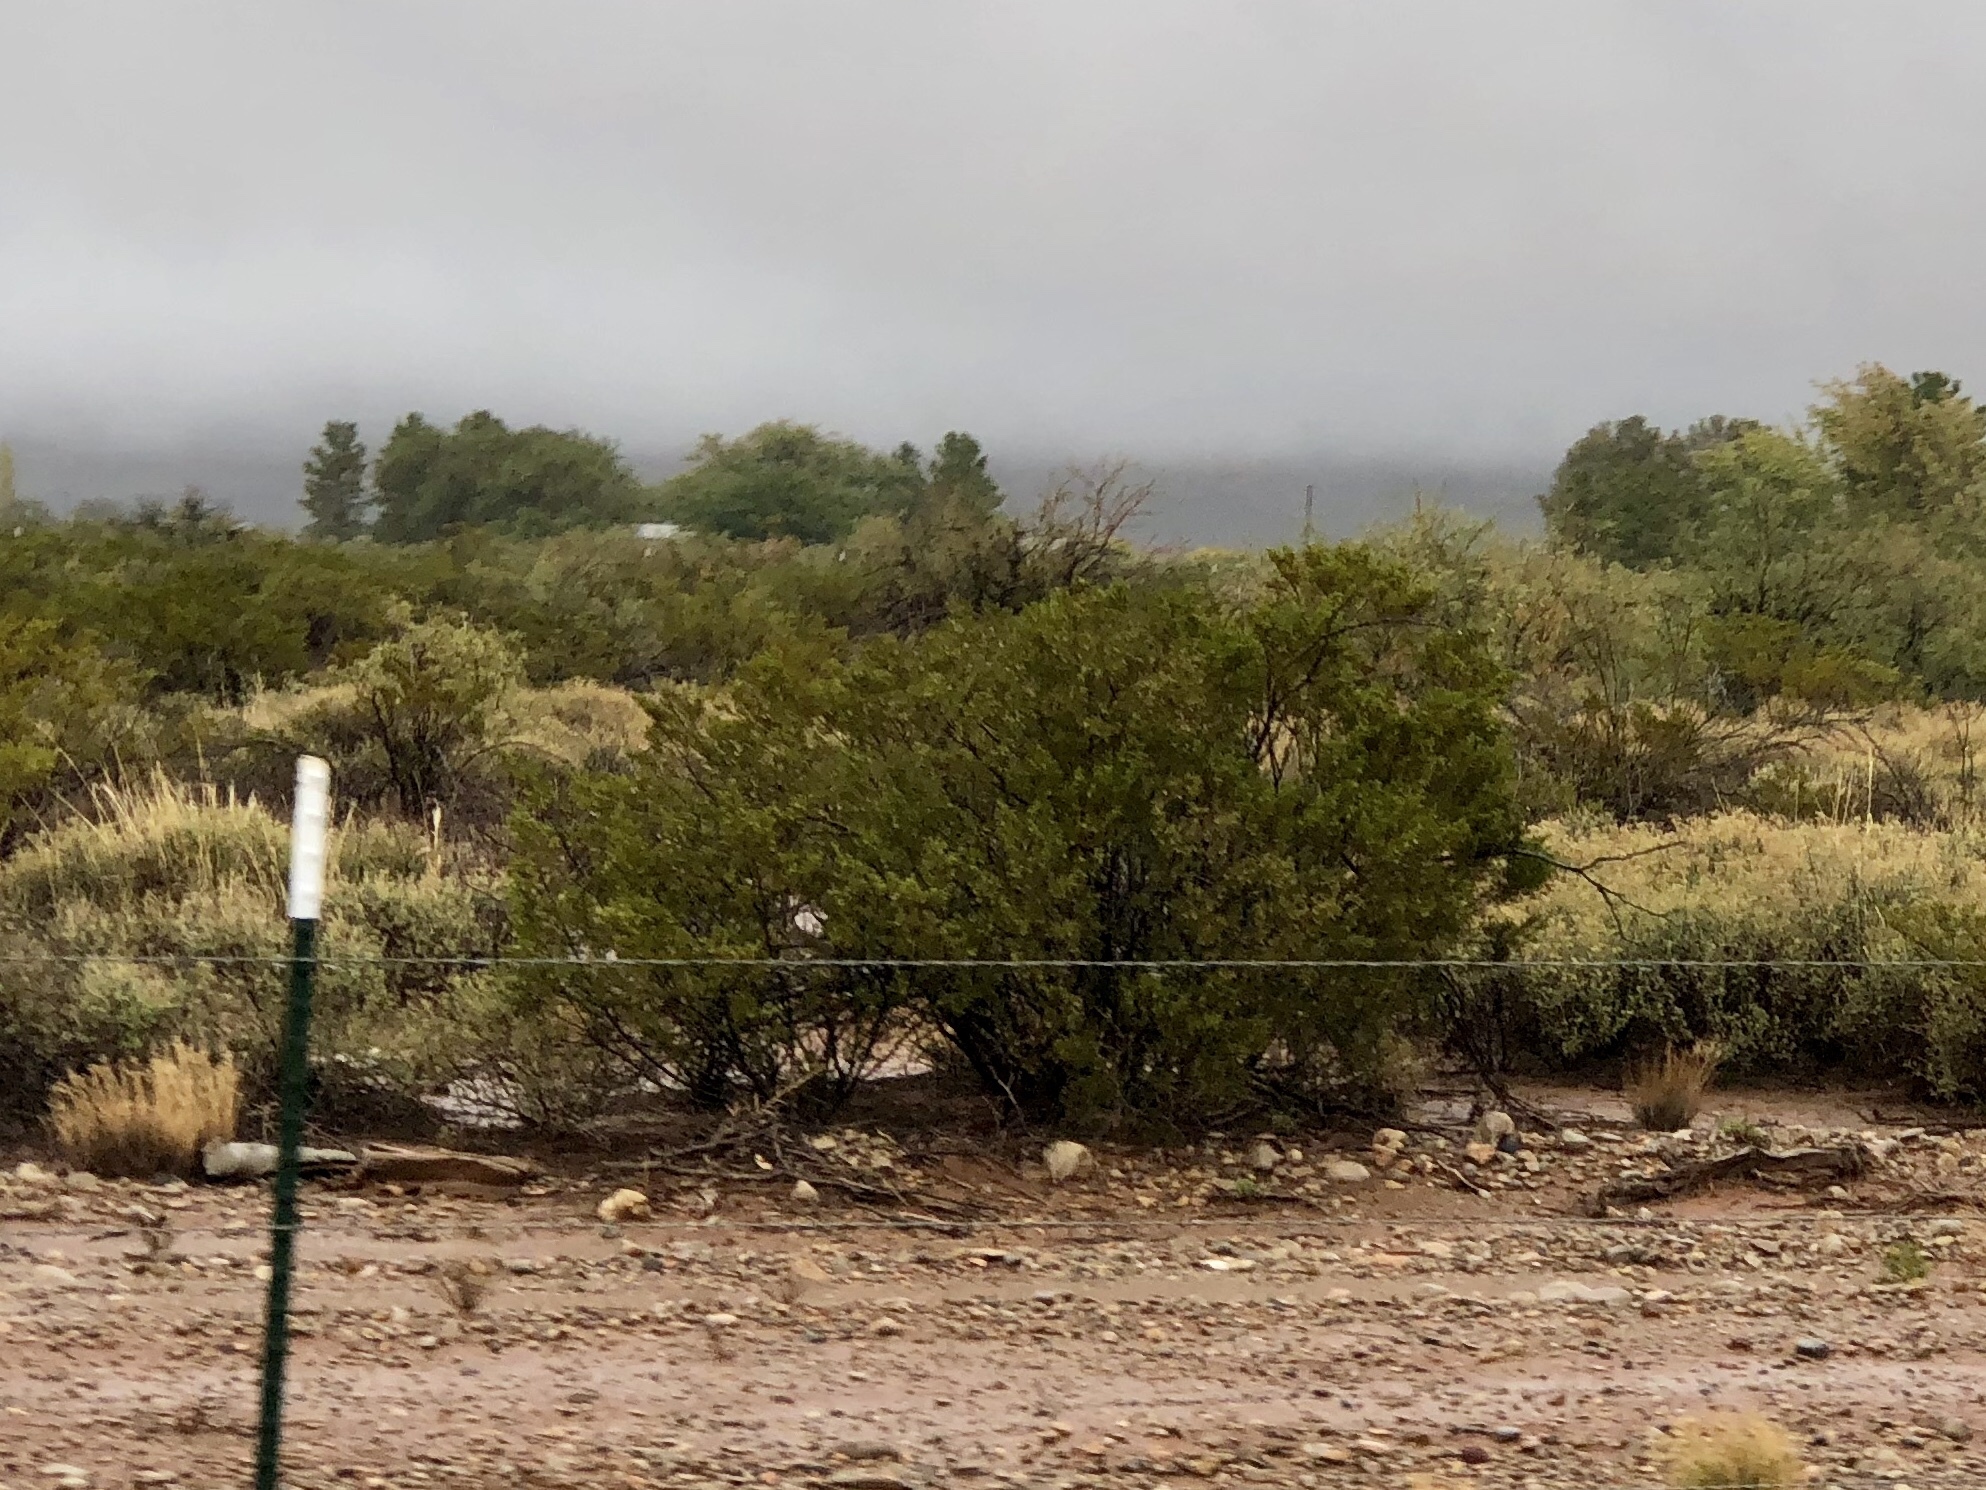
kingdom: Plantae
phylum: Tracheophyta
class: Magnoliopsida
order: Zygophyllales
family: Zygophyllaceae
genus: Larrea
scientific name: Larrea tridentata
